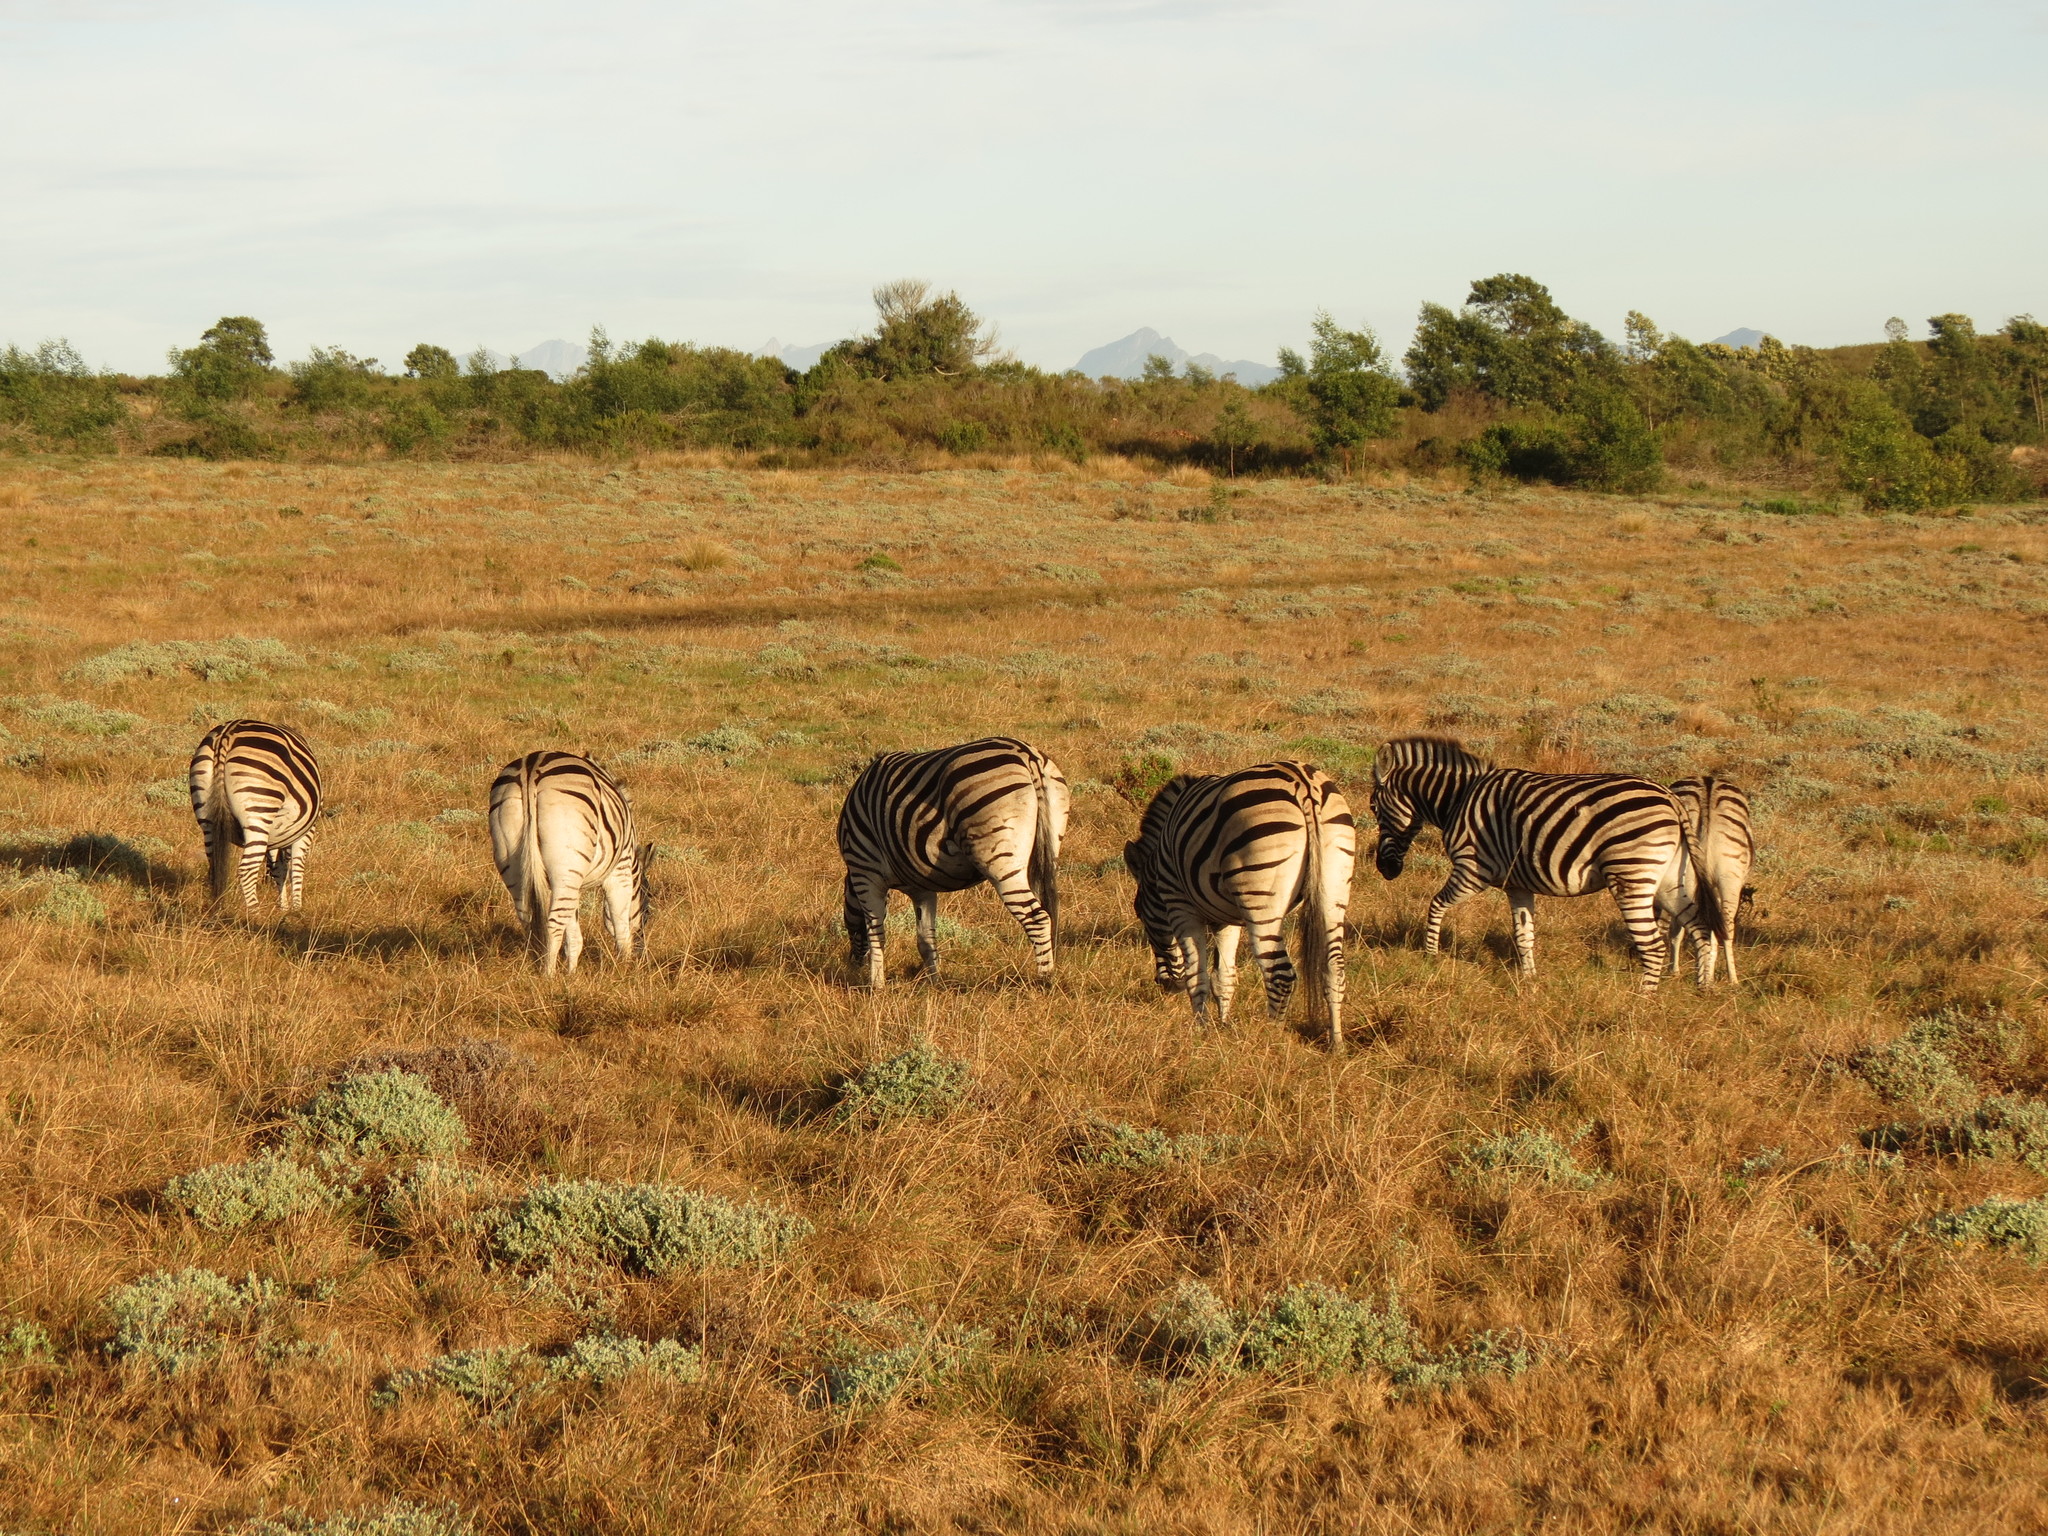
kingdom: Animalia
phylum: Chordata
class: Mammalia
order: Perissodactyla
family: Equidae
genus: Equus
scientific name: Equus quagga
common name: Plains zebra
